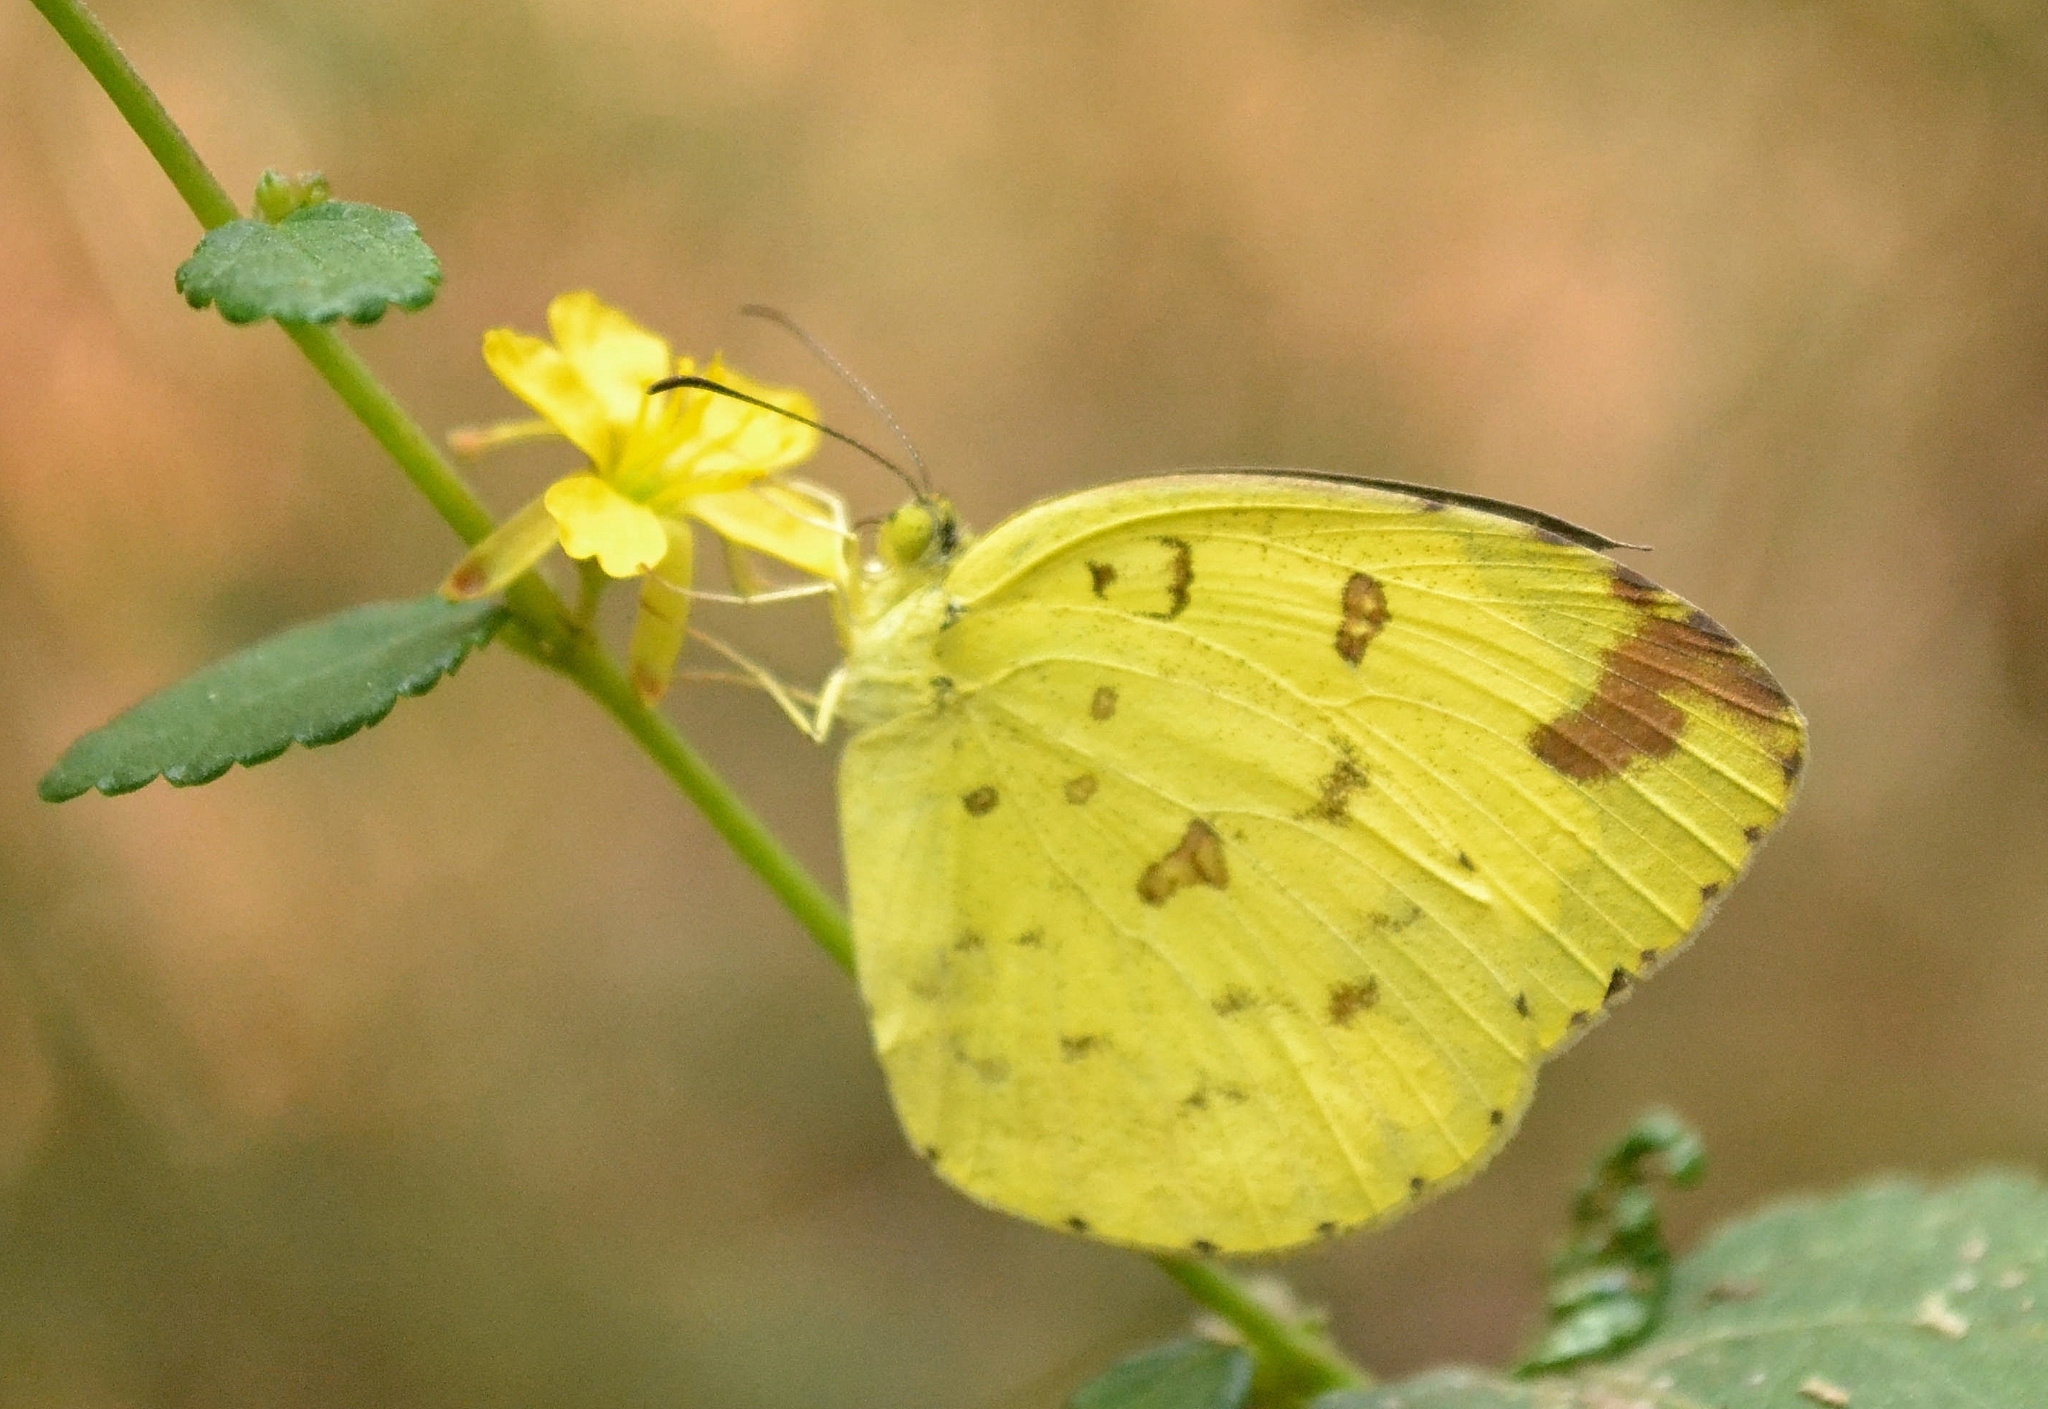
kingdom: Animalia
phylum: Arthropoda
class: Insecta
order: Lepidoptera
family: Pieridae
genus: Eurema
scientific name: Eurema hecabe
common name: Pale grass yellow
